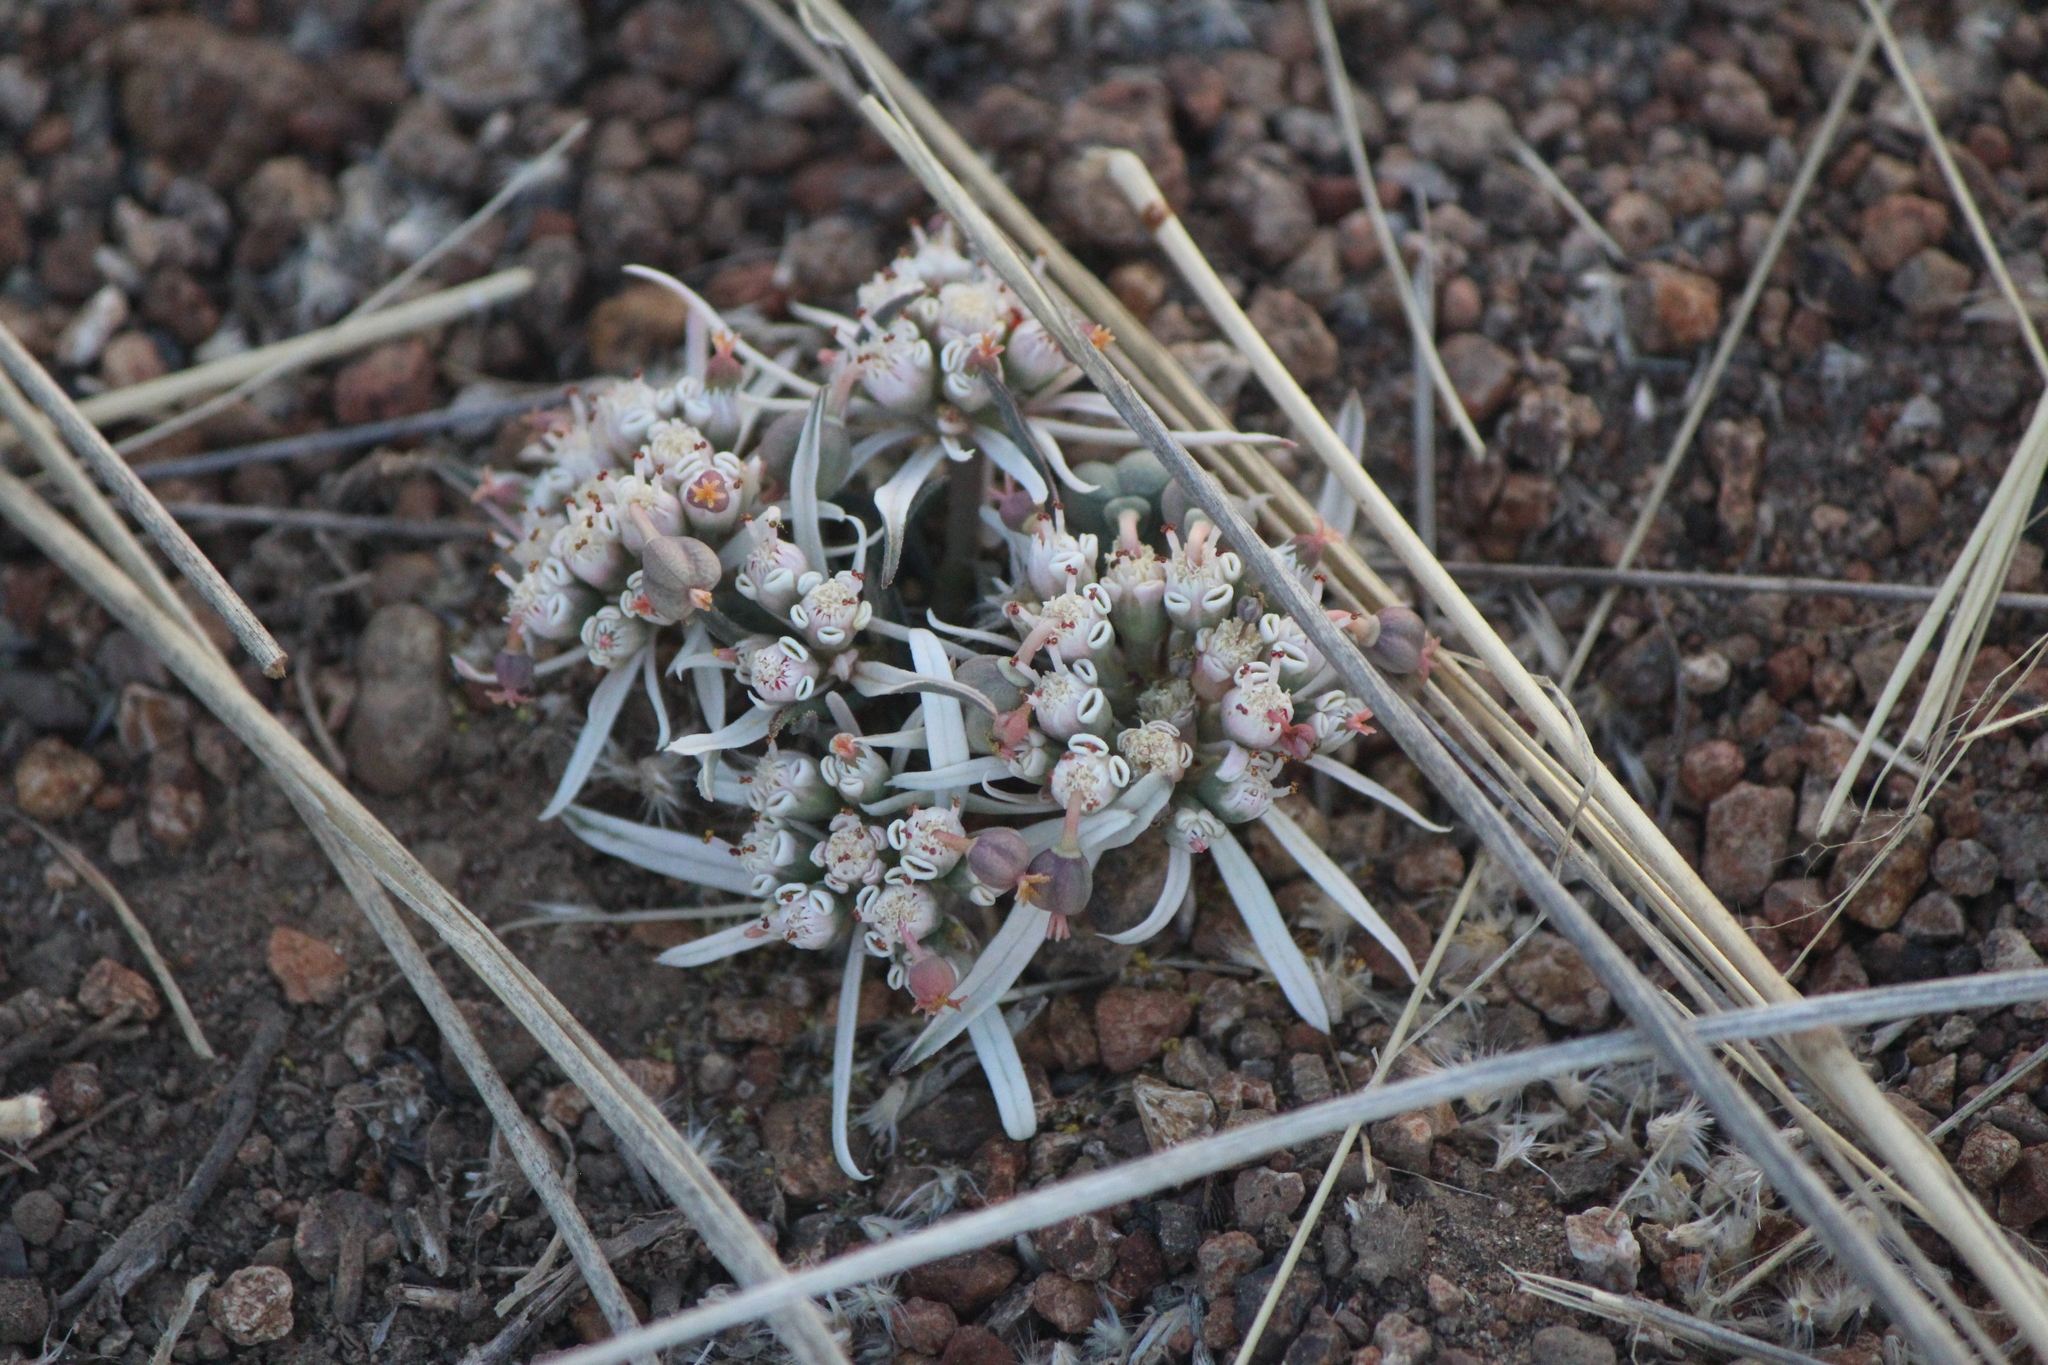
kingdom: Plantae
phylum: Tracheophyta
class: Magnoliopsida
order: Malpighiales
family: Euphorbiaceae
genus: Euphorbia
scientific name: Euphorbia radians
